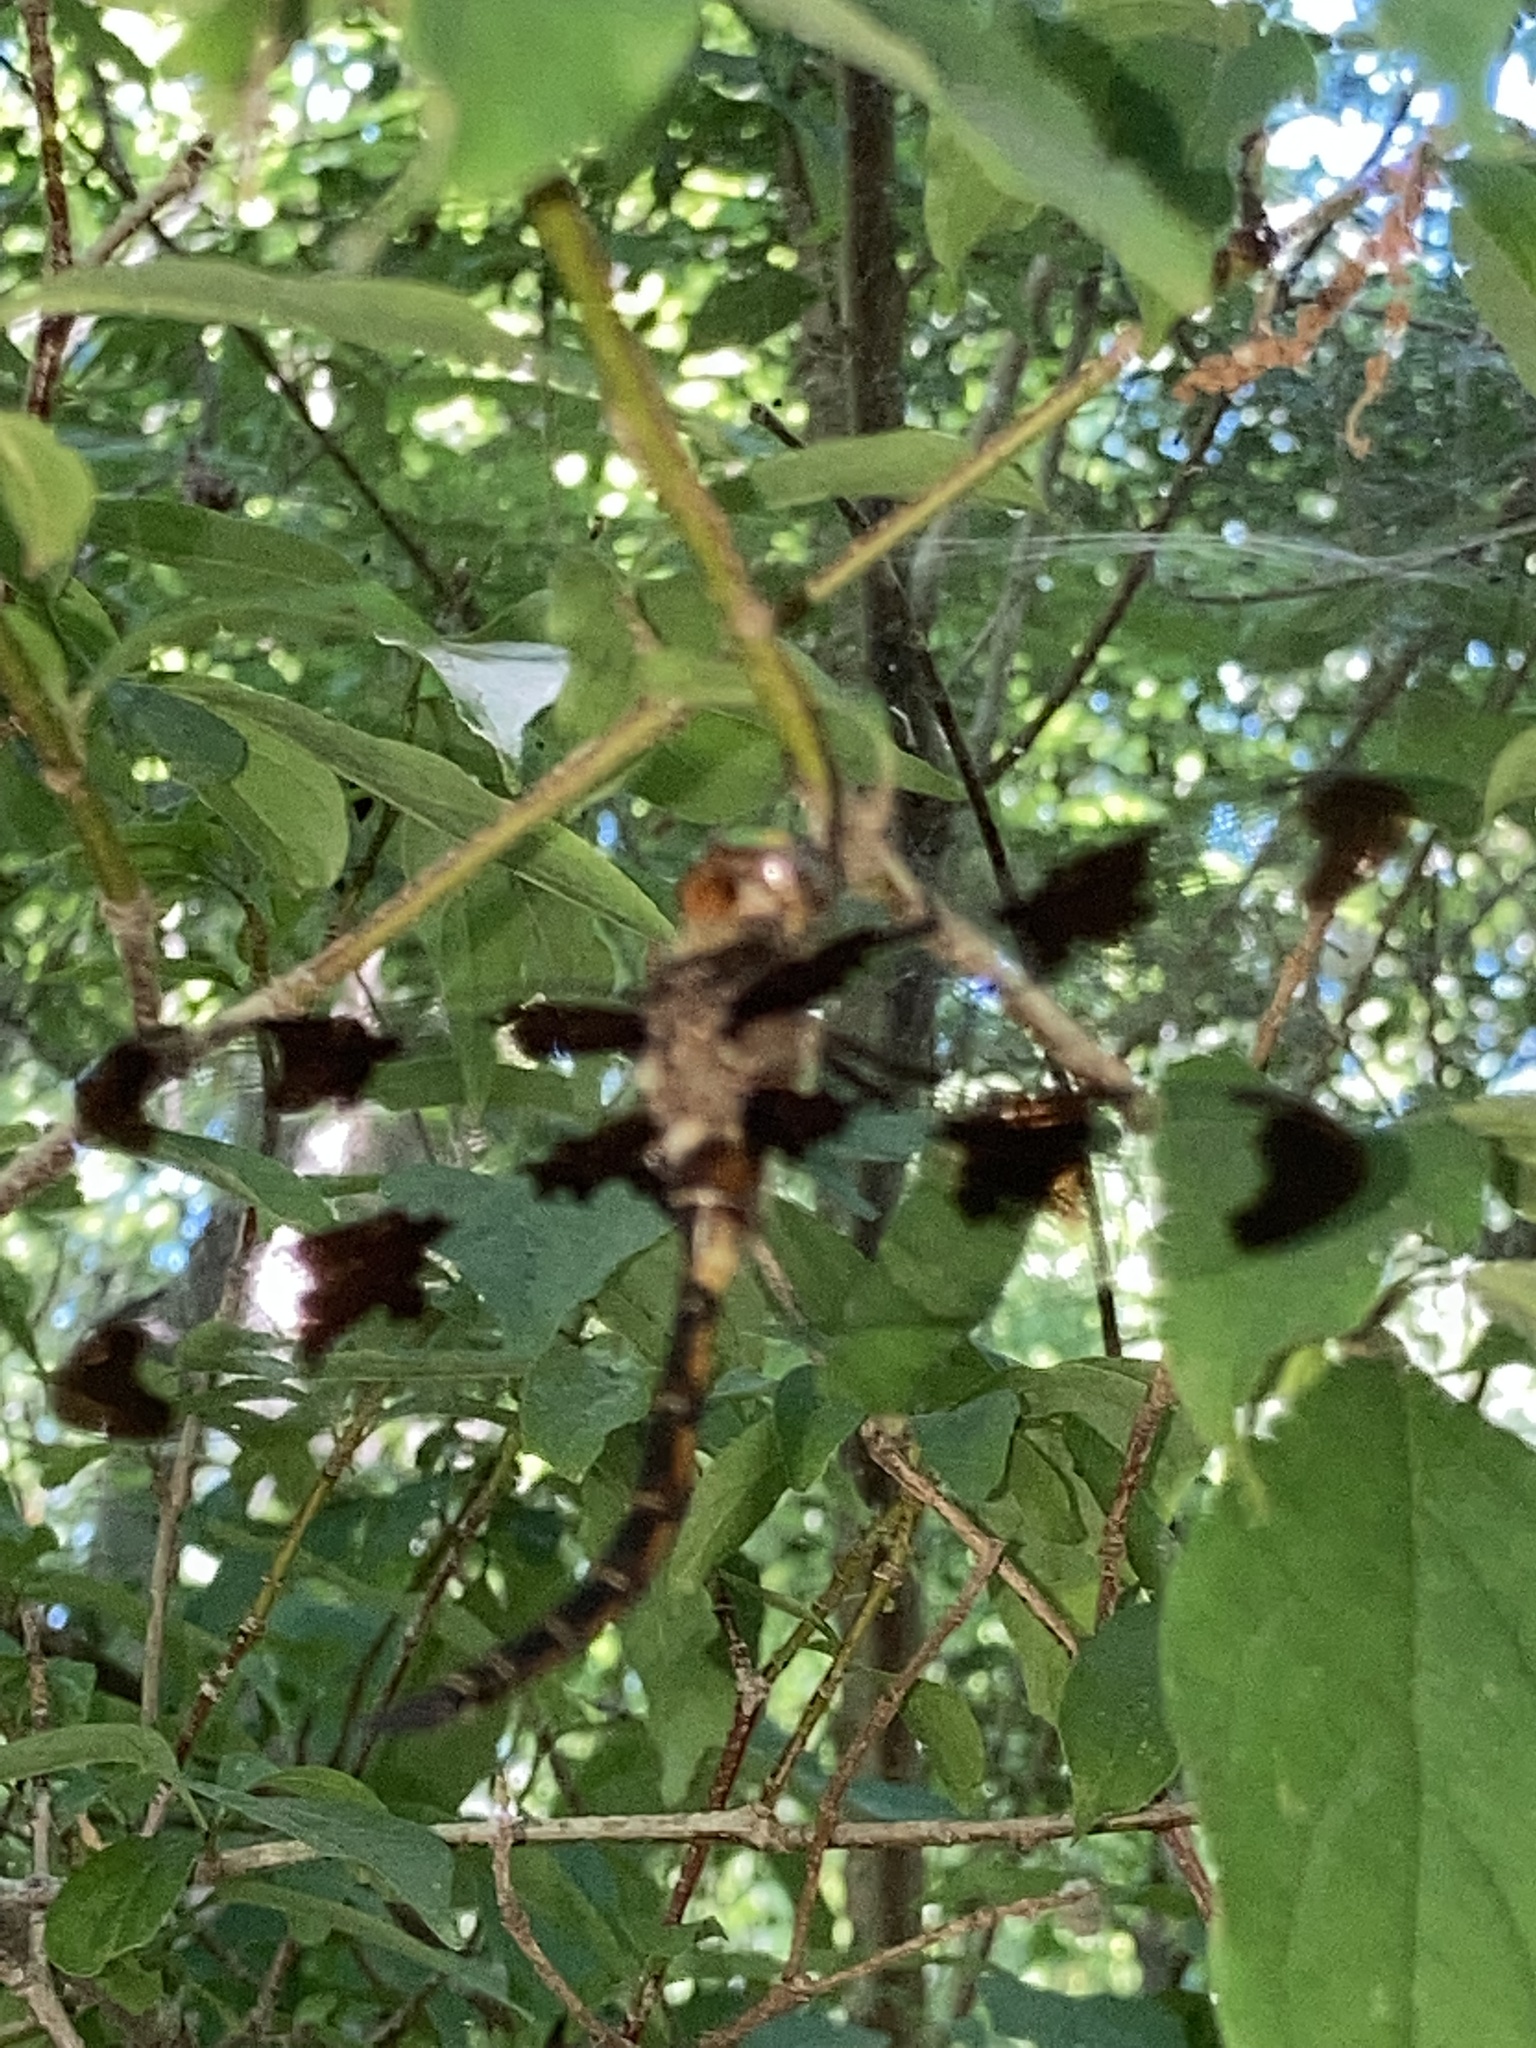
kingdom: Animalia
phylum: Arthropoda
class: Insecta
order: Odonata
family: Corduliidae
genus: Epitheca
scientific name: Epitheca princeps
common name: Prince baskettail
